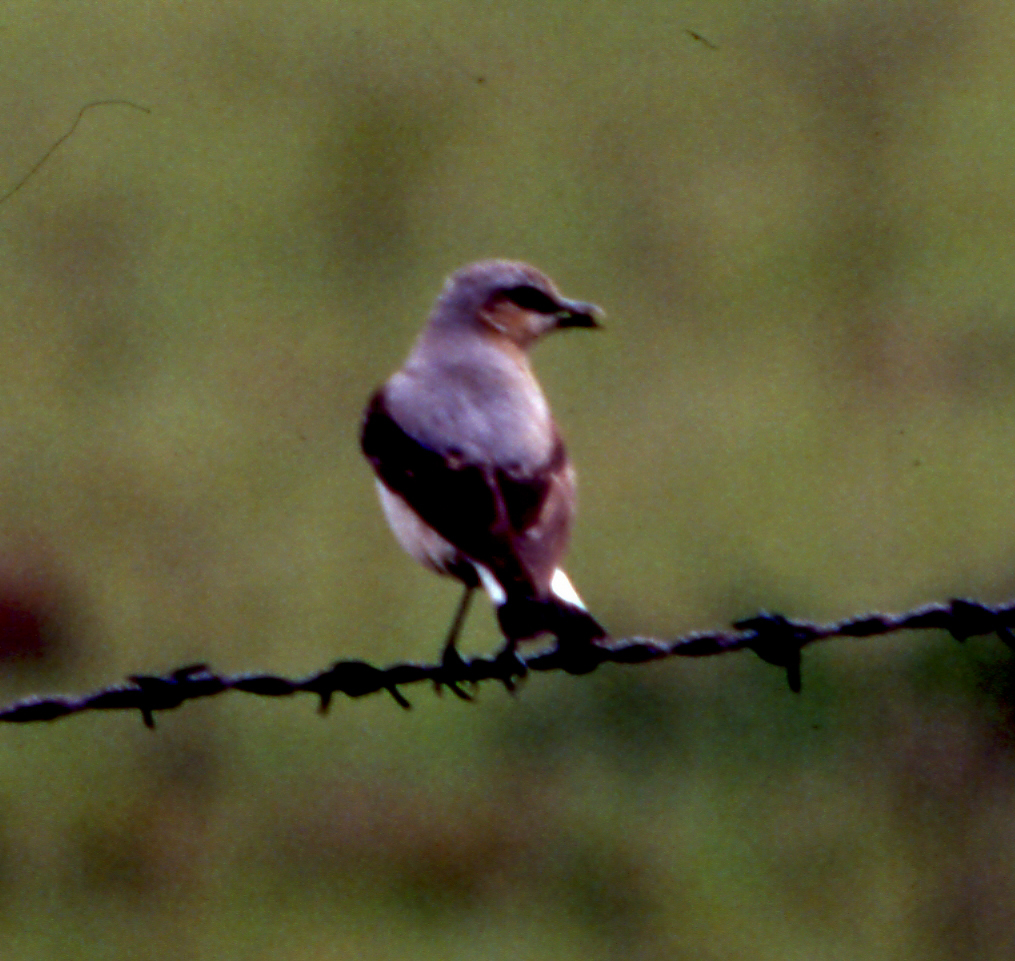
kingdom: Animalia
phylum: Chordata
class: Aves
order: Passeriformes
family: Muscicapidae
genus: Oenanthe
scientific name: Oenanthe oenanthe
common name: Northern wheatear
